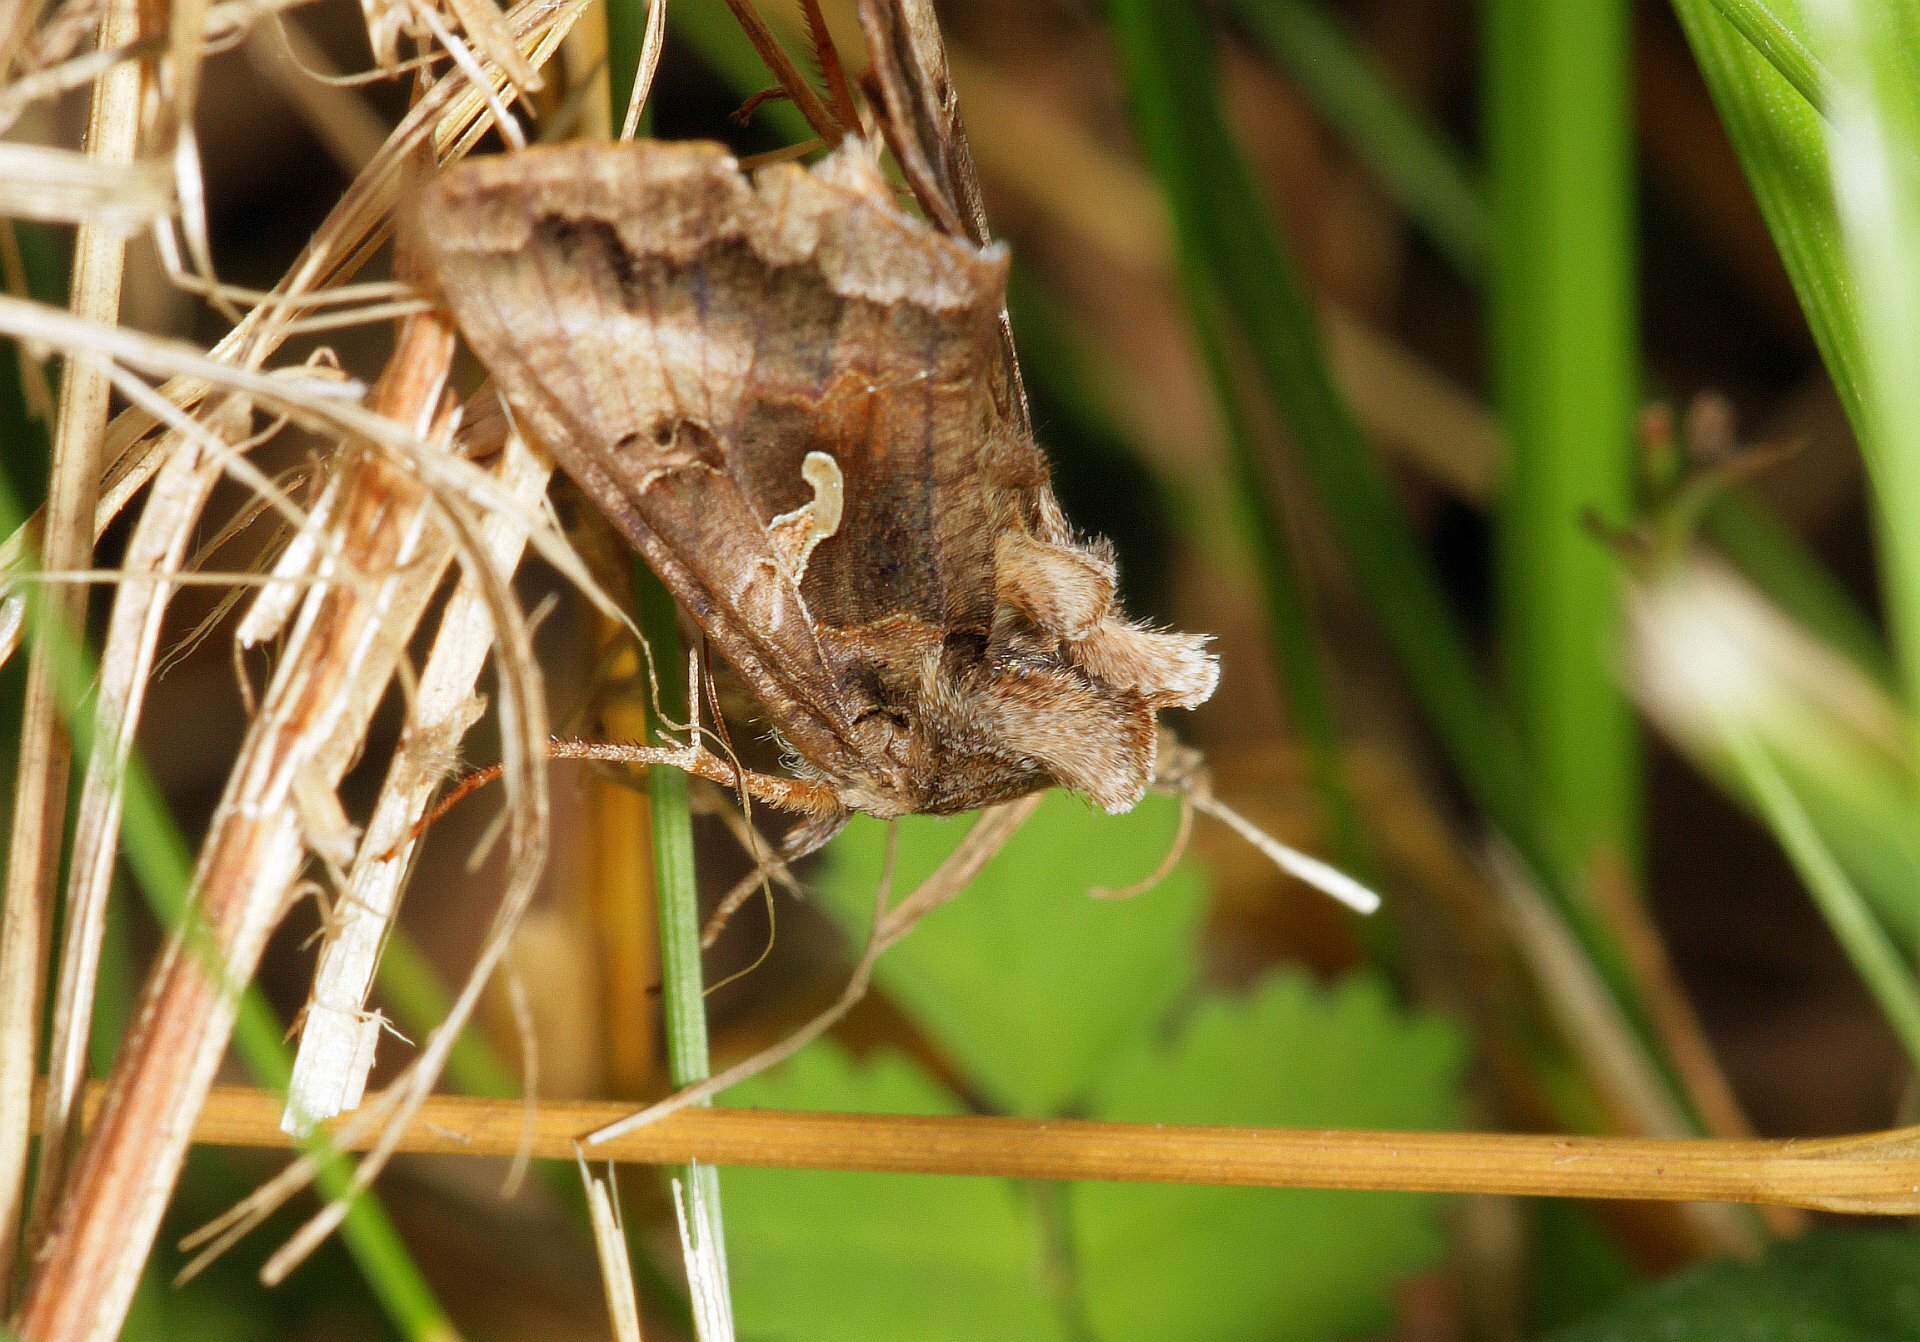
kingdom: Animalia
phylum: Arthropoda
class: Insecta
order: Lepidoptera
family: Noctuidae
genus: Autographa
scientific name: Autographa gamma
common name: Silver y
